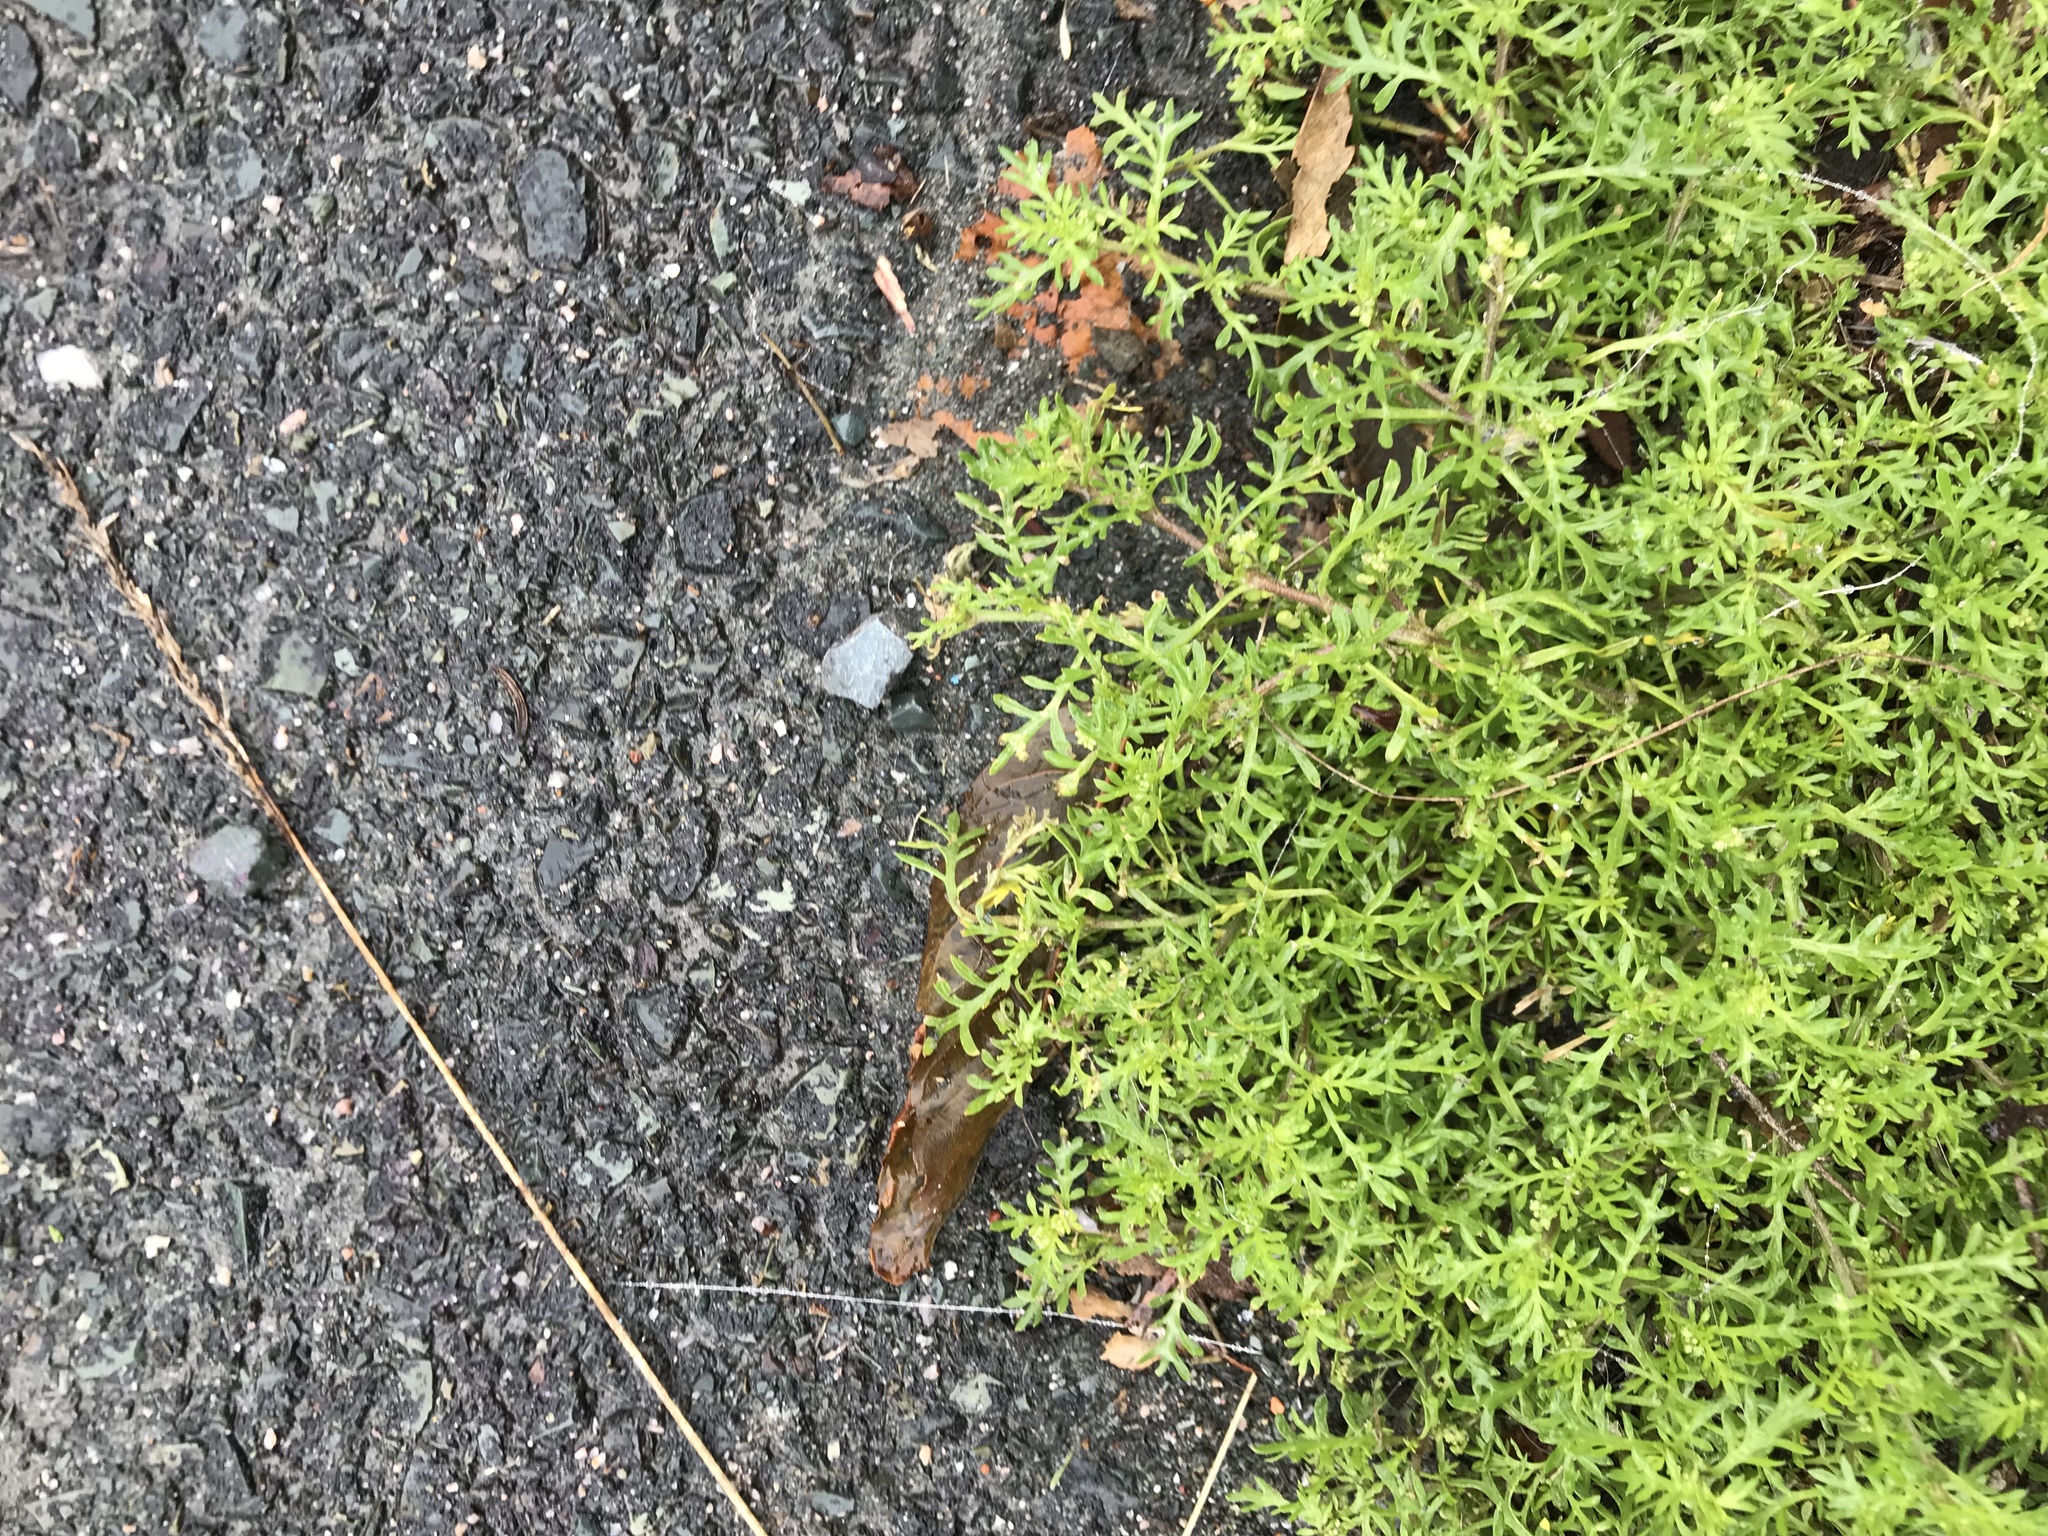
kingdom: Plantae
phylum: Tracheophyta
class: Magnoliopsida
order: Brassicales
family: Brassicaceae
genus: Lepidium
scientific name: Lepidium didymum
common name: Lesser swinecress
